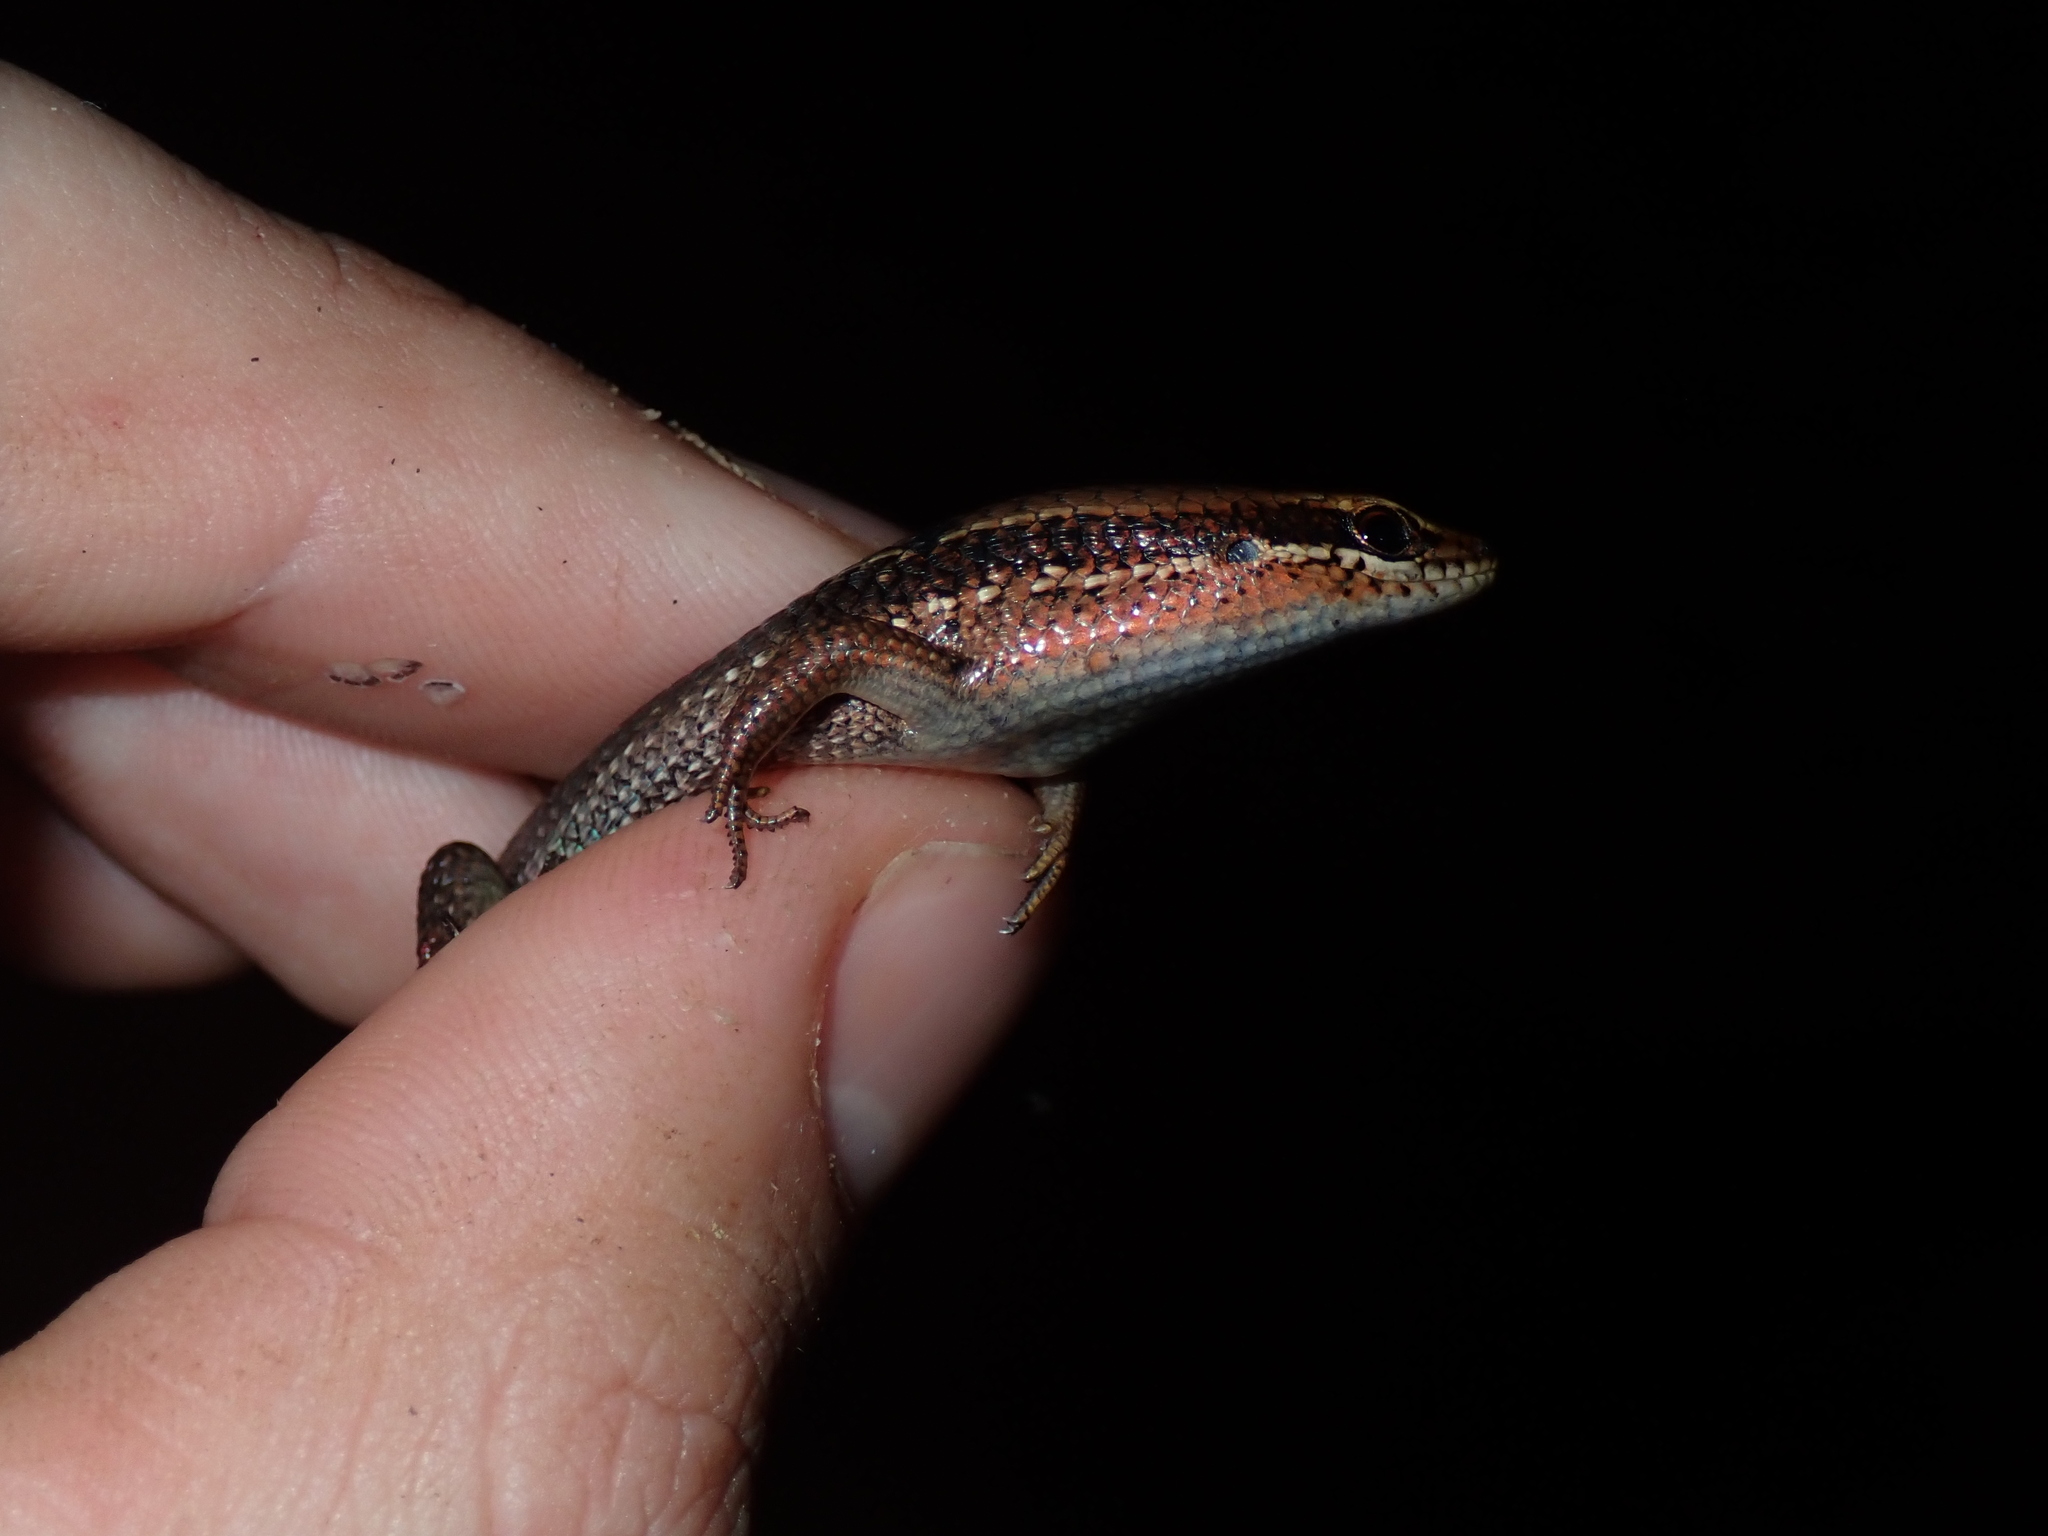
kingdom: Animalia
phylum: Chordata
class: Squamata
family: Scincidae
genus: Eutropis
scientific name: Eutropis macularia
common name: Bronze mabuya
